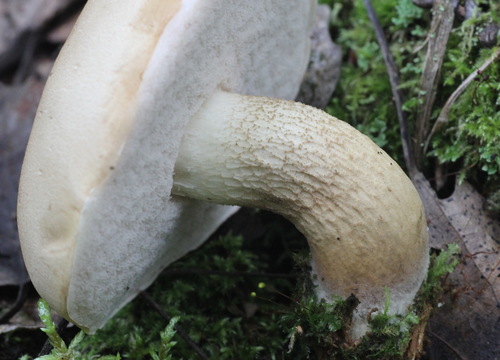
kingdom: Fungi
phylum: Basidiomycota
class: Agaricomycetes
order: Boletales
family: Boletaceae
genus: Tylopilus
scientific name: Tylopilus felleus
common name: Bitter bolete
